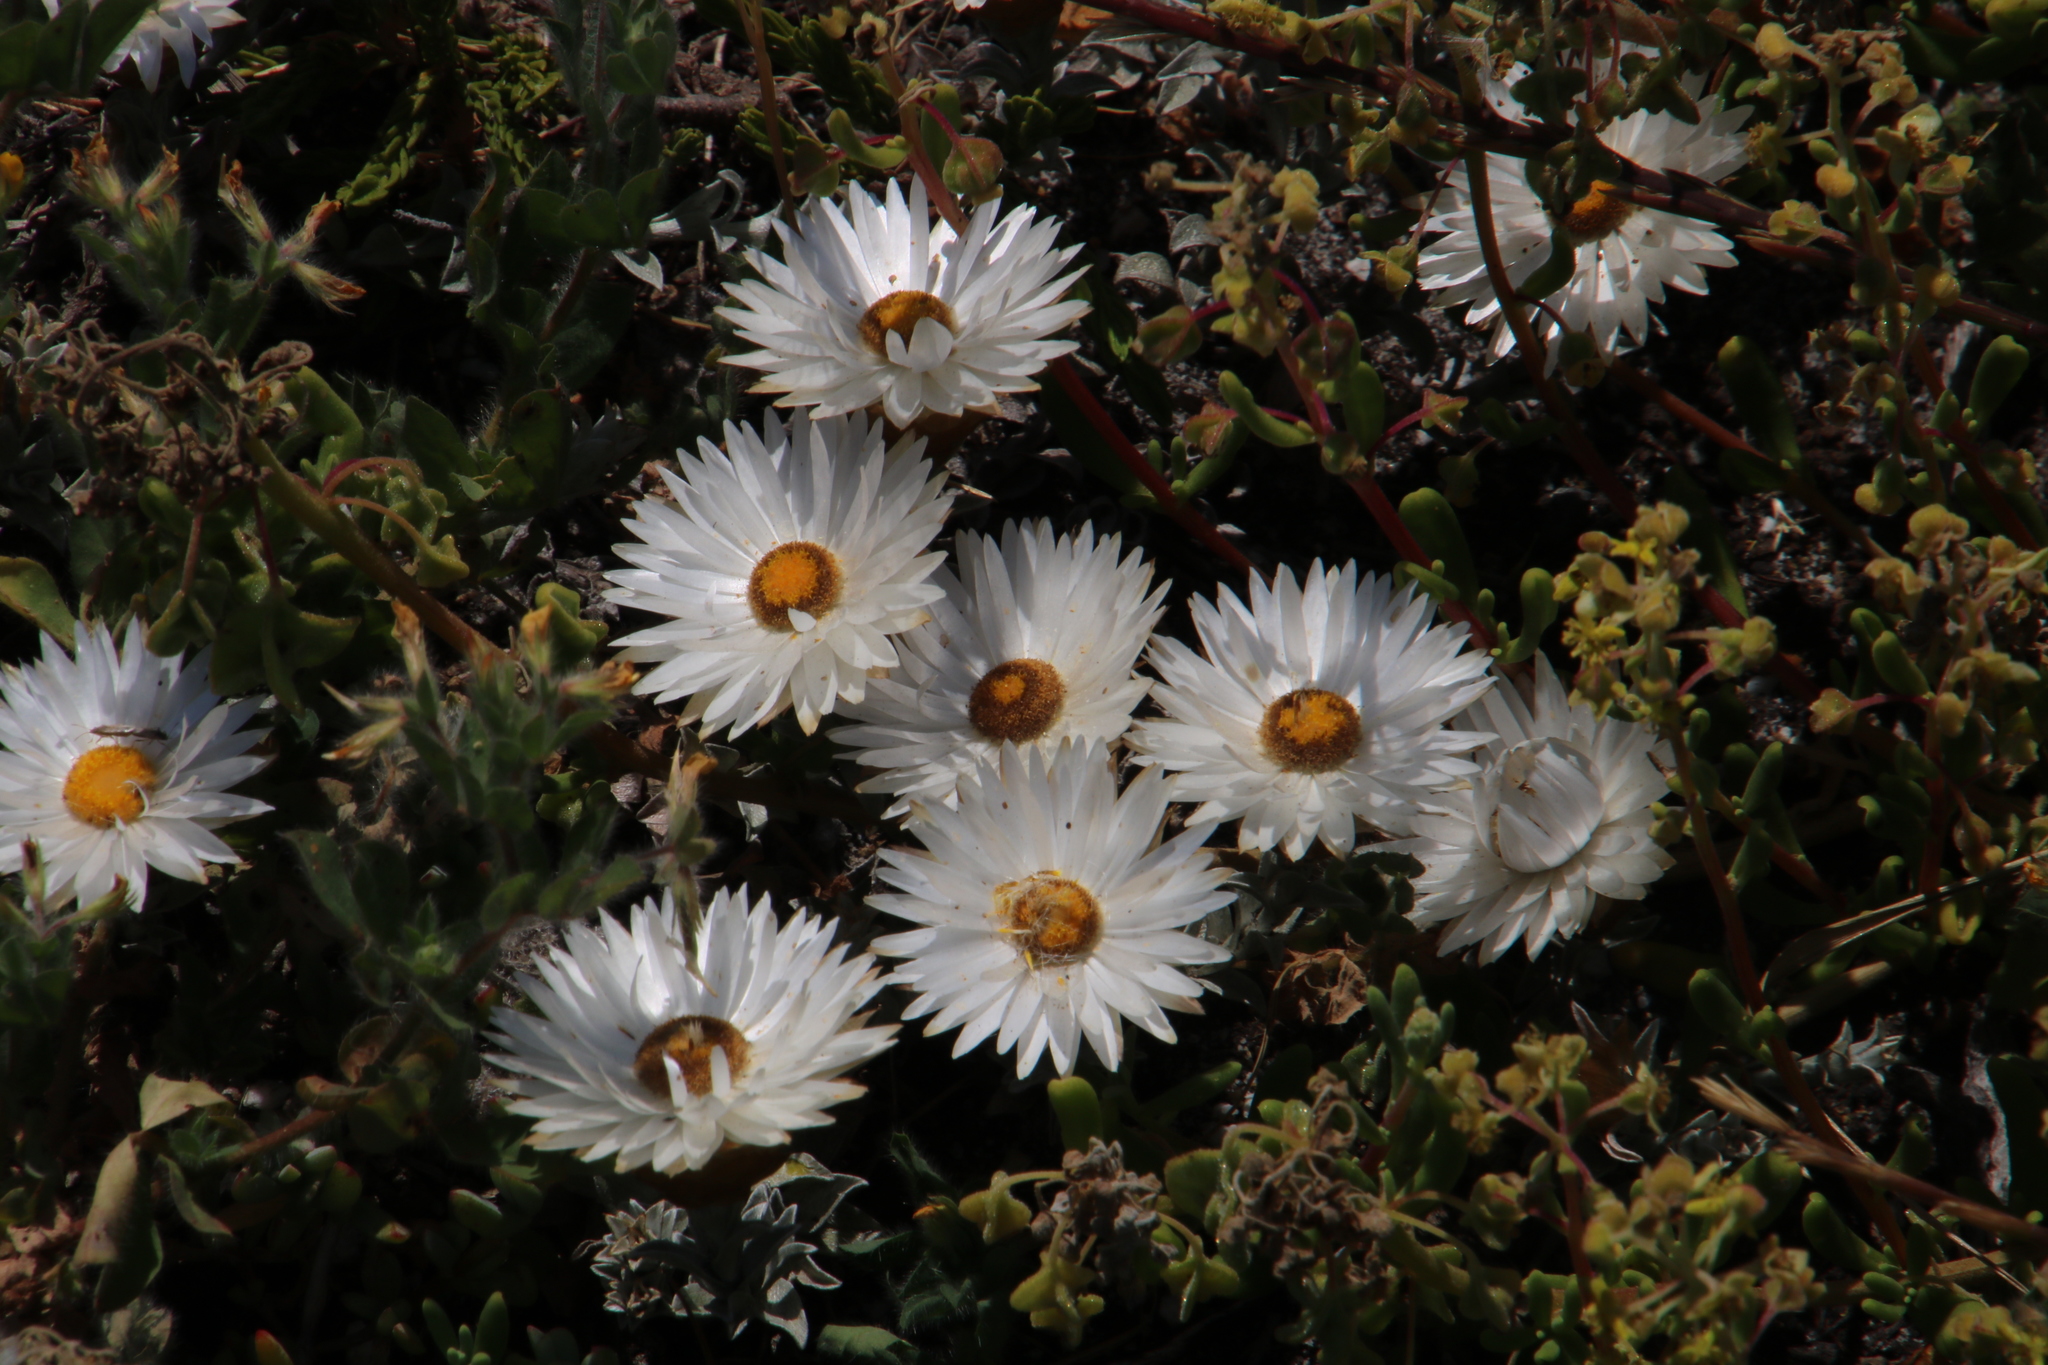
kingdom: Plantae
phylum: Tracheophyta
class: Magnoliopsida
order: Asterales
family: Asteraceae
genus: Helichrysum
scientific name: Helichrysum retortum
